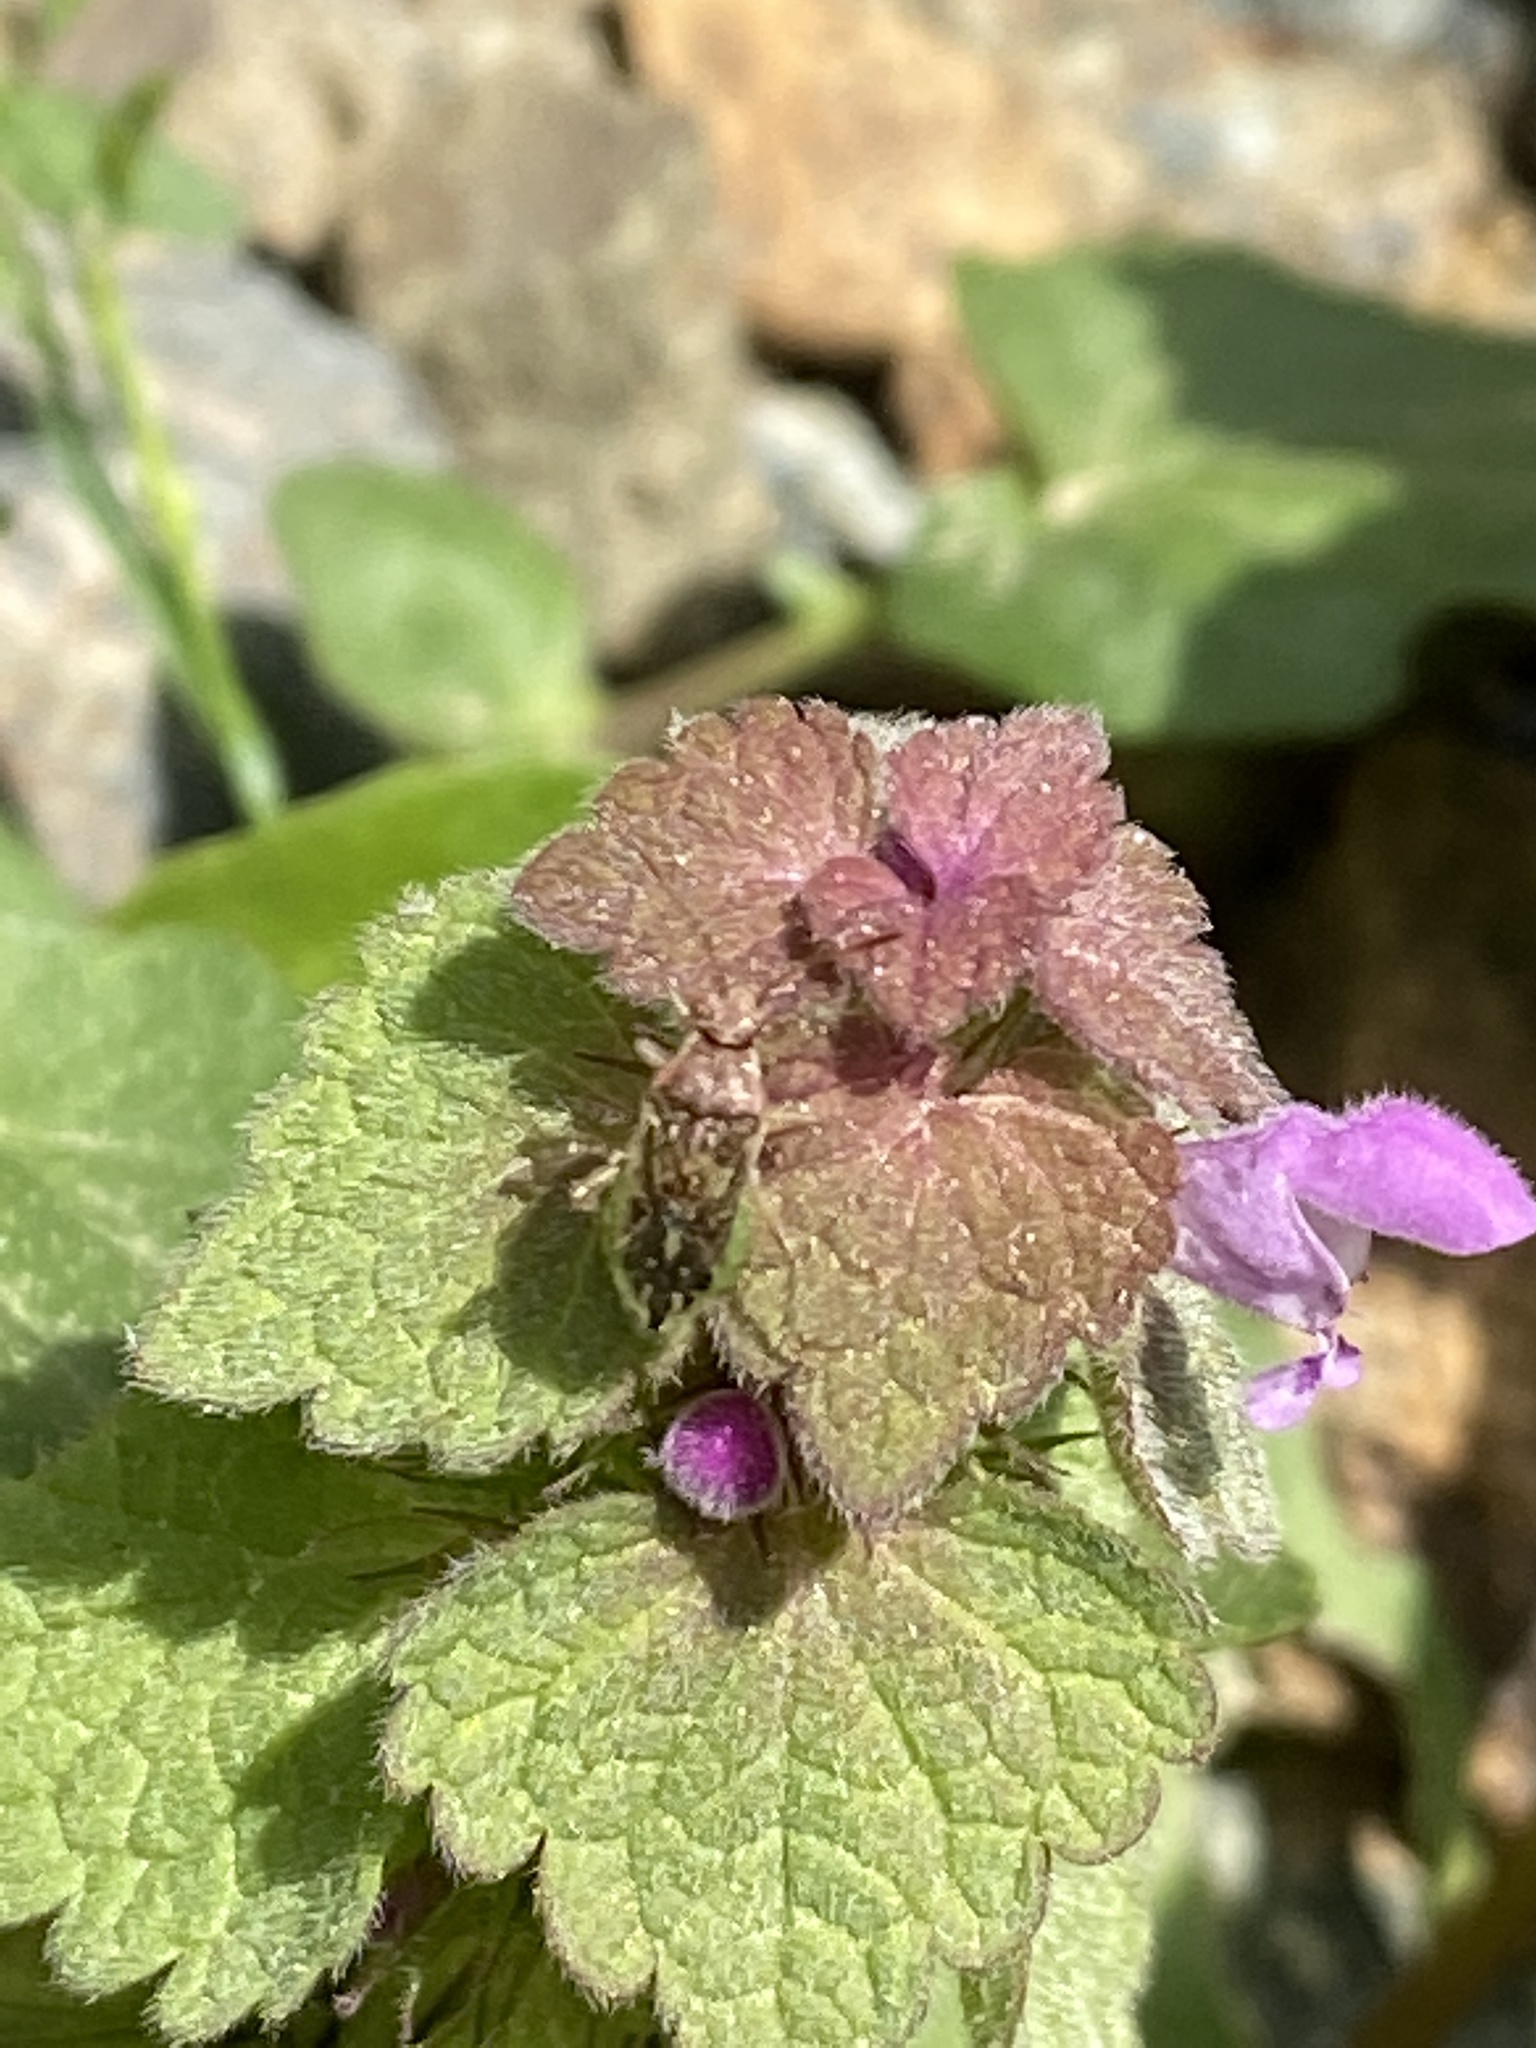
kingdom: Plantae
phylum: Tracheophyta
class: Magnoliopsida
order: Lamiales
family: Lamiaceae
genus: Lamium
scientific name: Lamium purpureum
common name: Red dead-nettle
